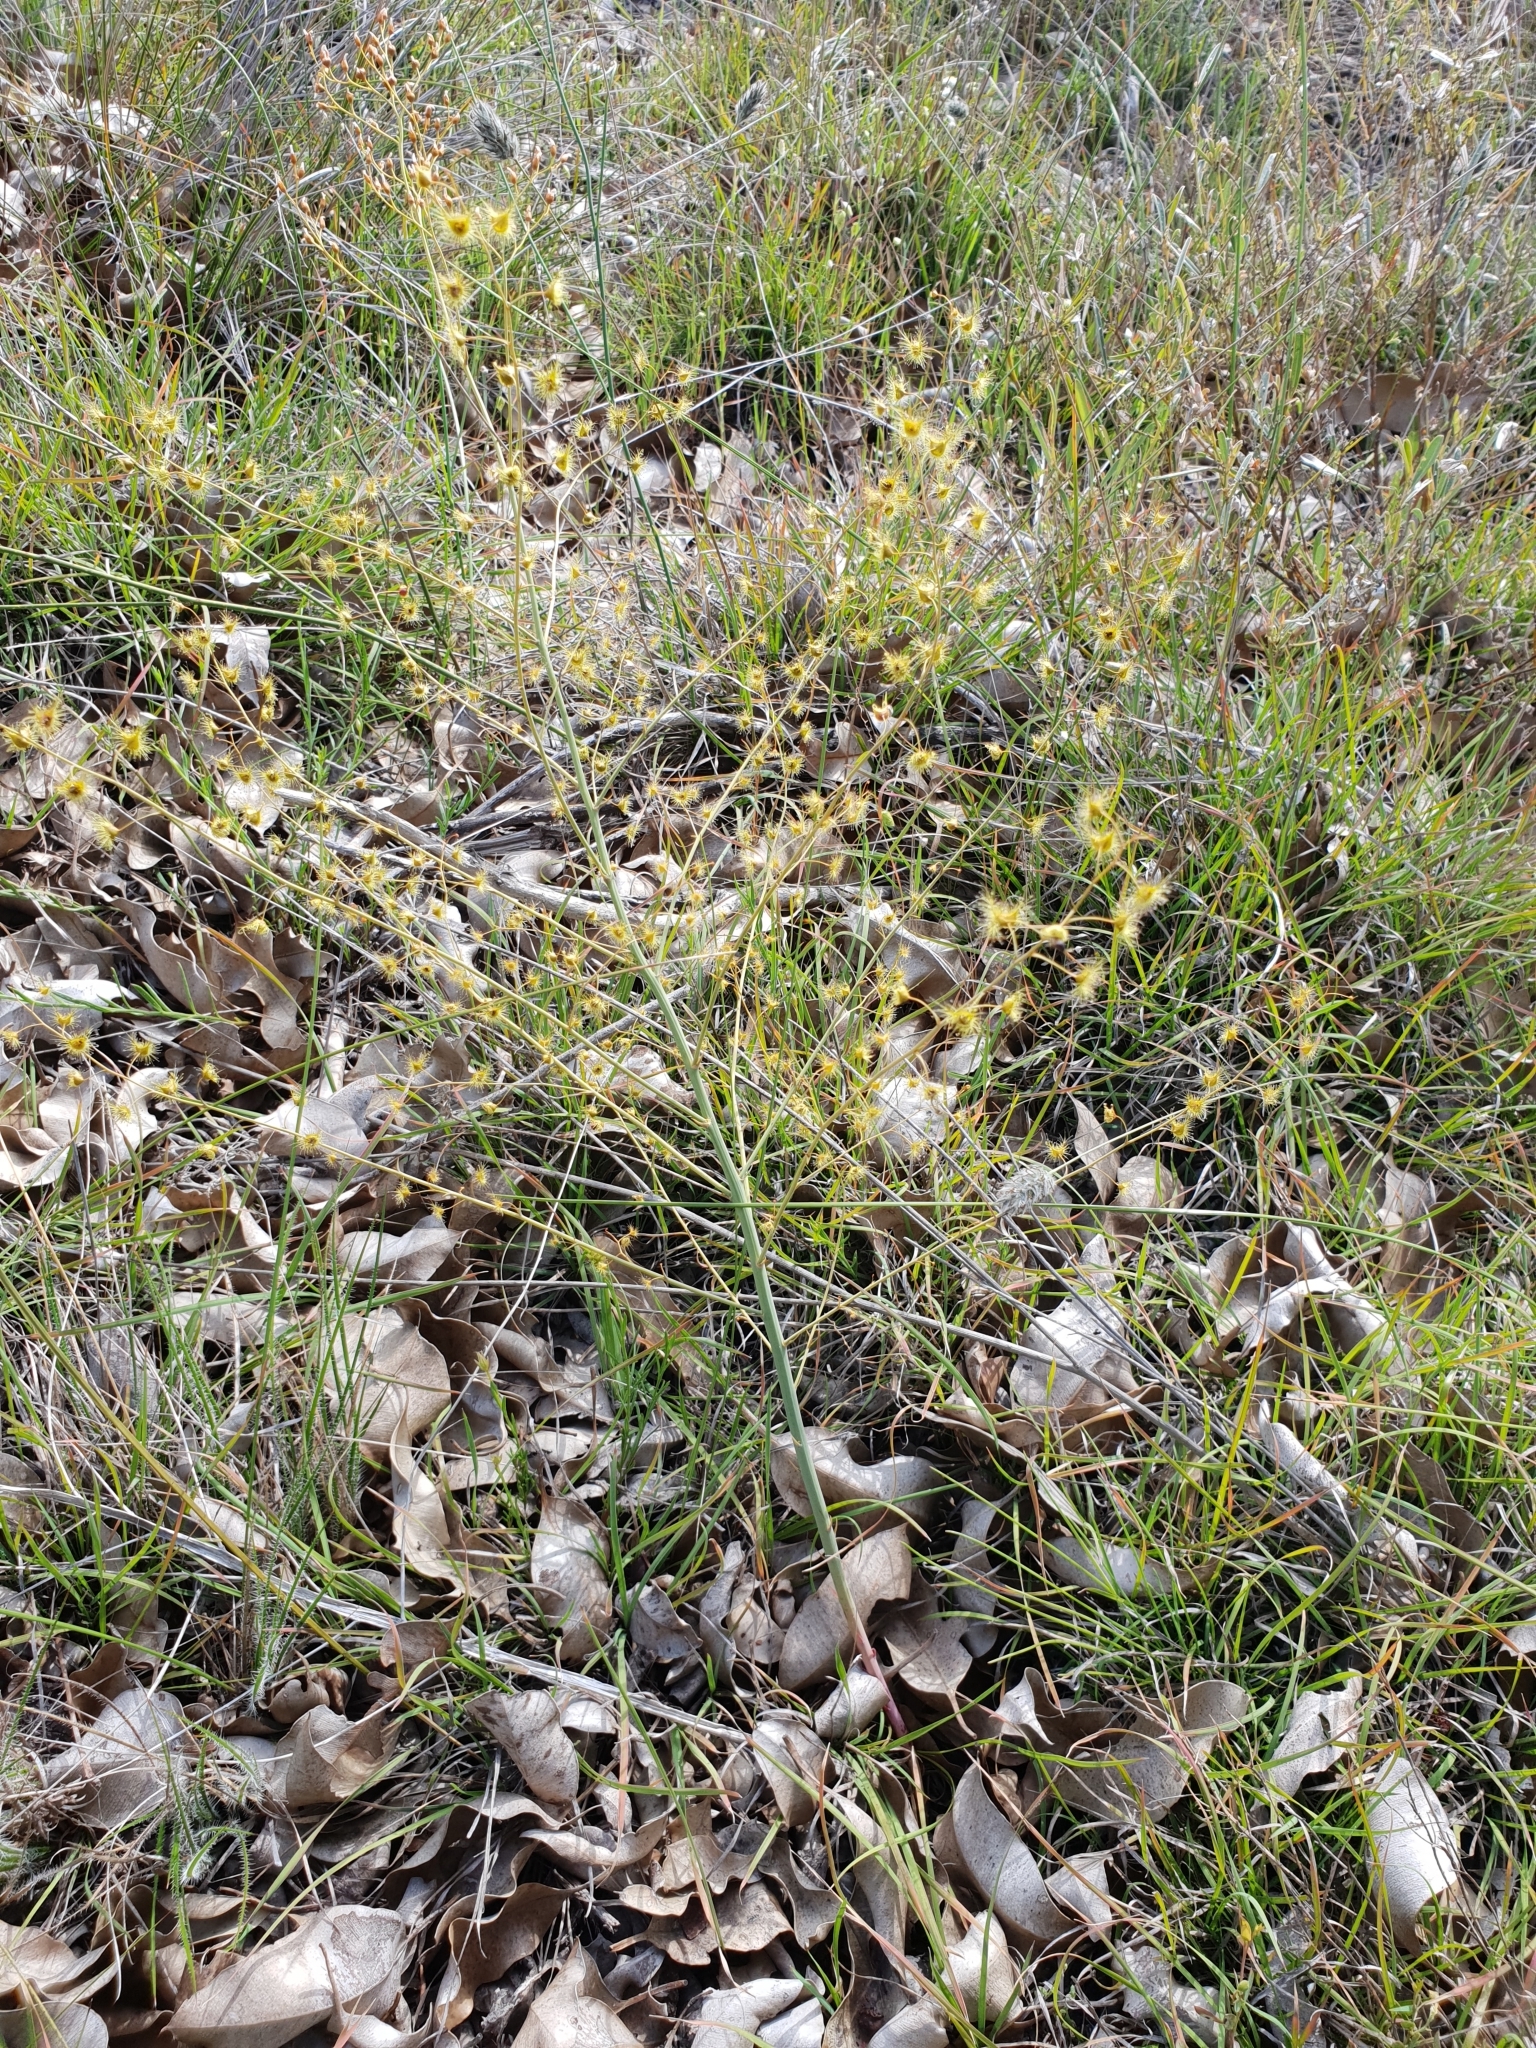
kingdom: Plantae
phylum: Tracheophyta
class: Magnoliopsida
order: Caryophyllales
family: Droseraceae
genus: Drosera
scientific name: Drosera gigantea
